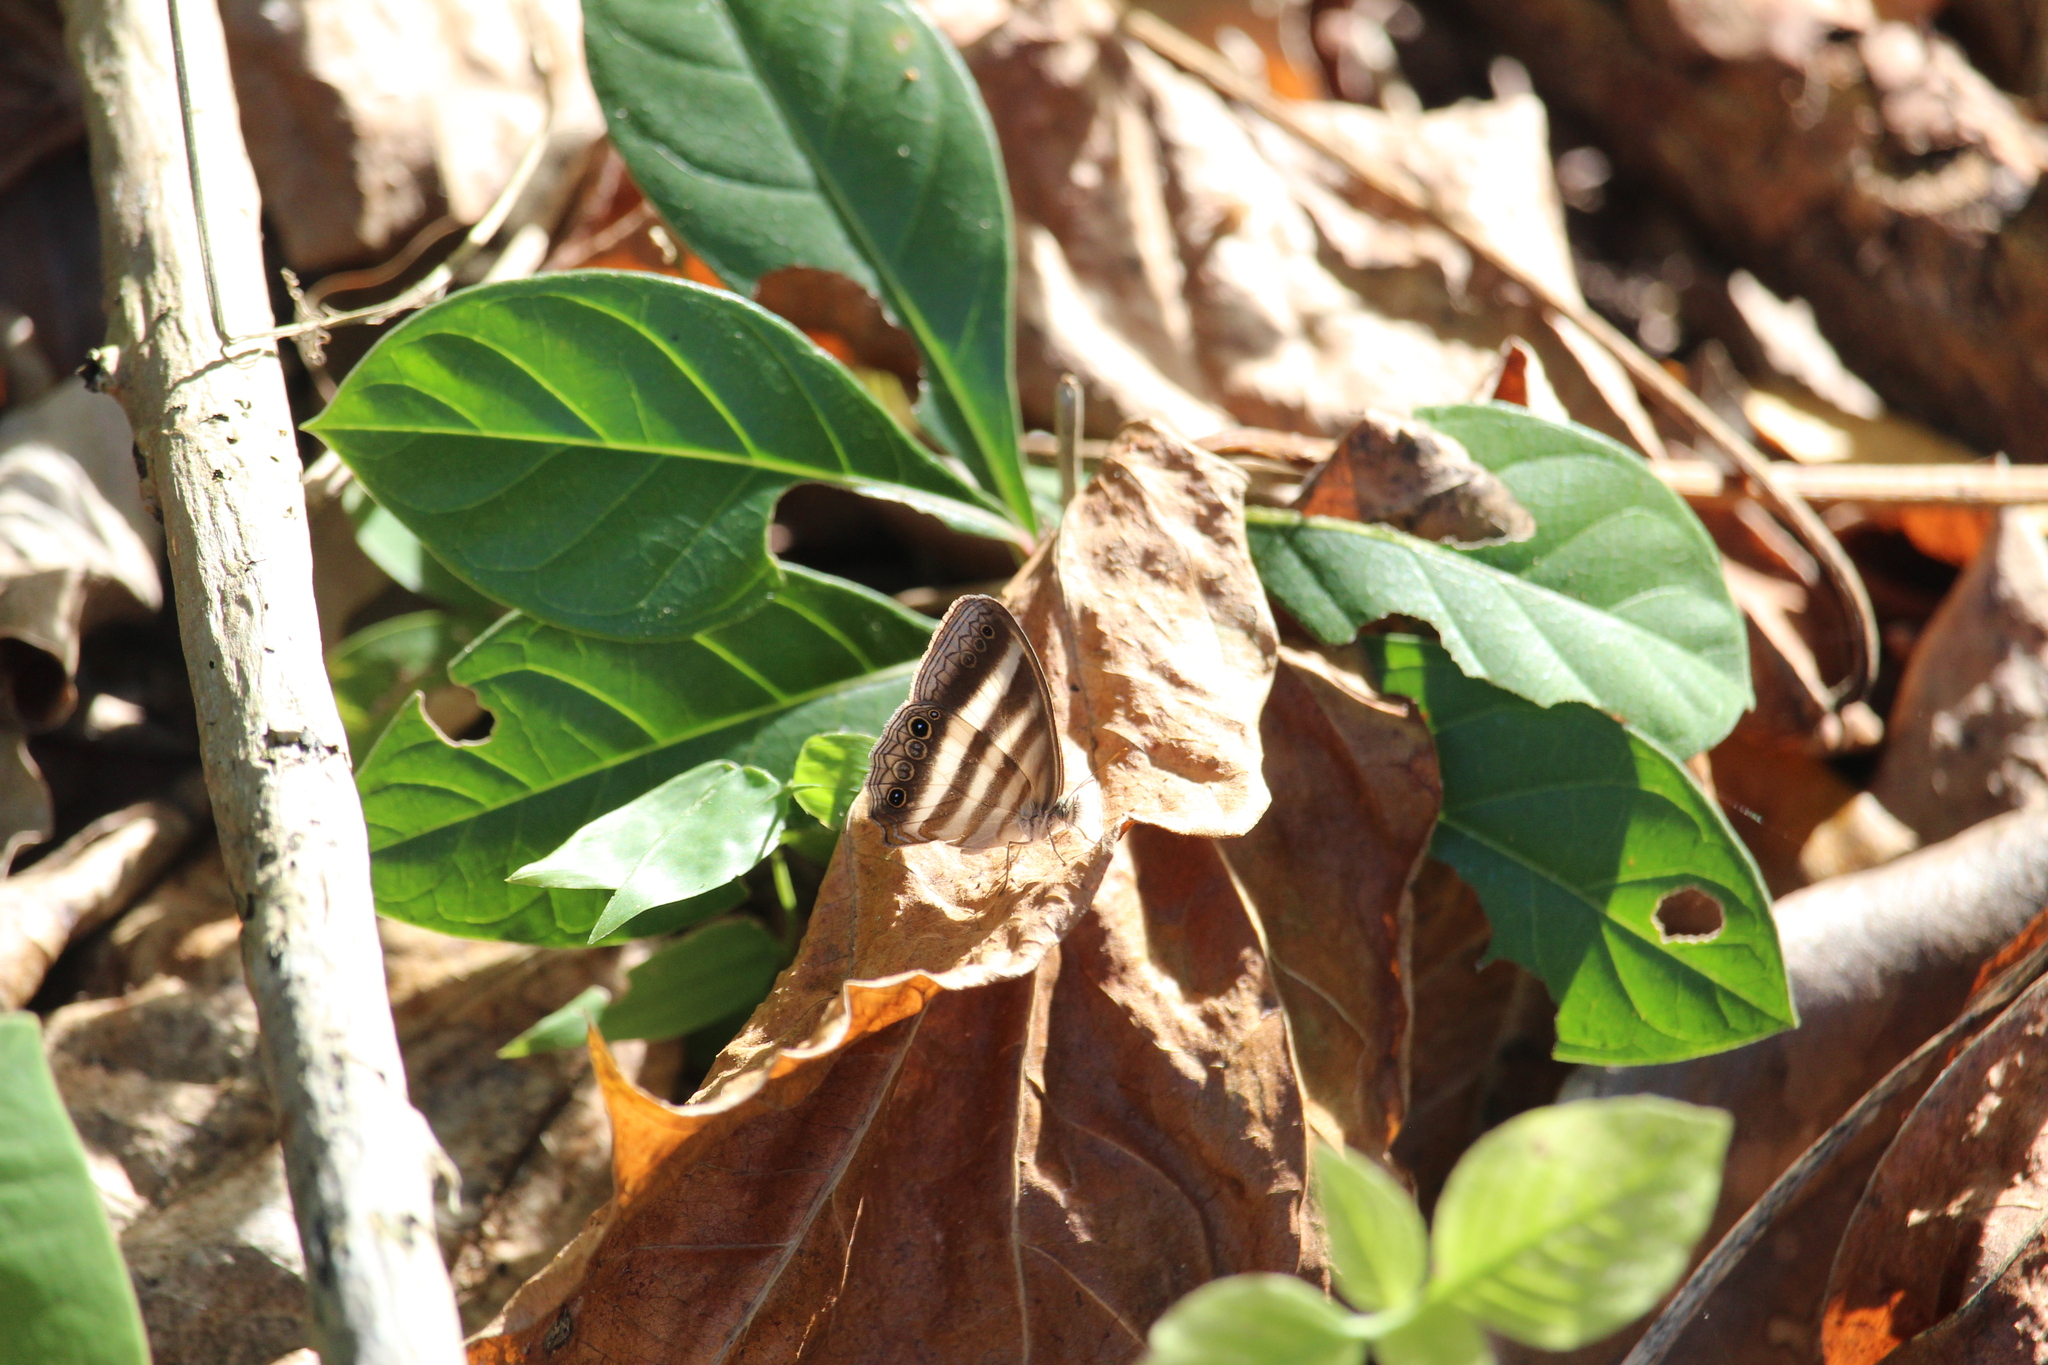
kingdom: Animalia
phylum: Arthropoda
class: Insecta
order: Lepidoptera
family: Nymphalidae
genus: Pareuptychia
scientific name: Pareuptychia hesione
